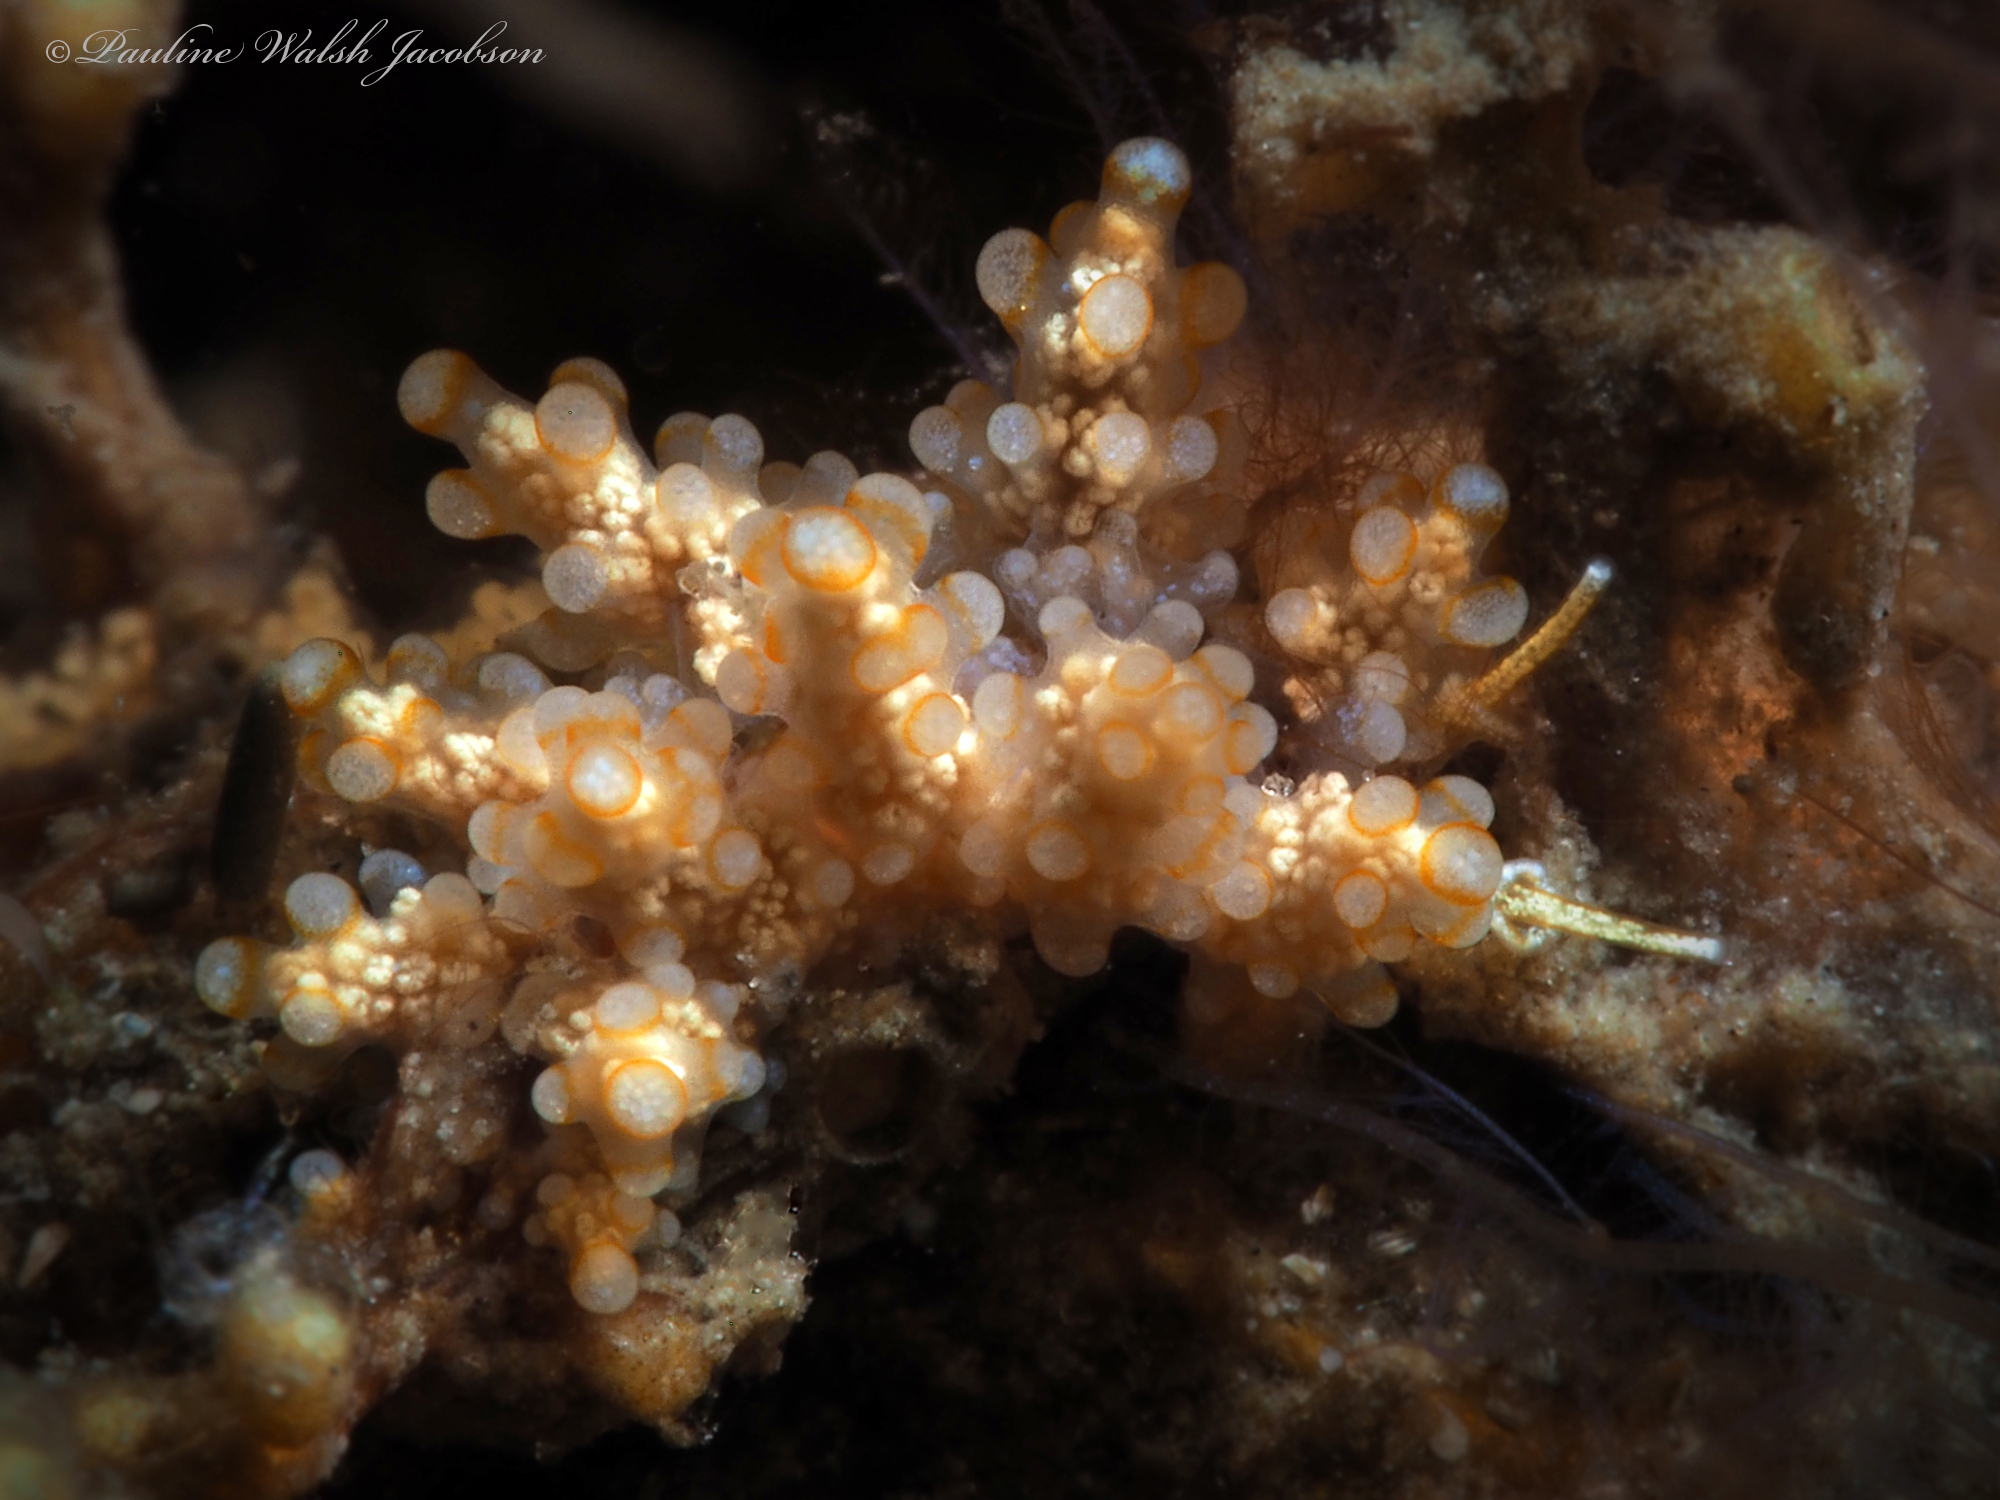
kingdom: Animalia
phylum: Mollusca
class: Gastropoda
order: Nudibranchia
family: Dotidae
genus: Doto
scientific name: Doto torrelavega
